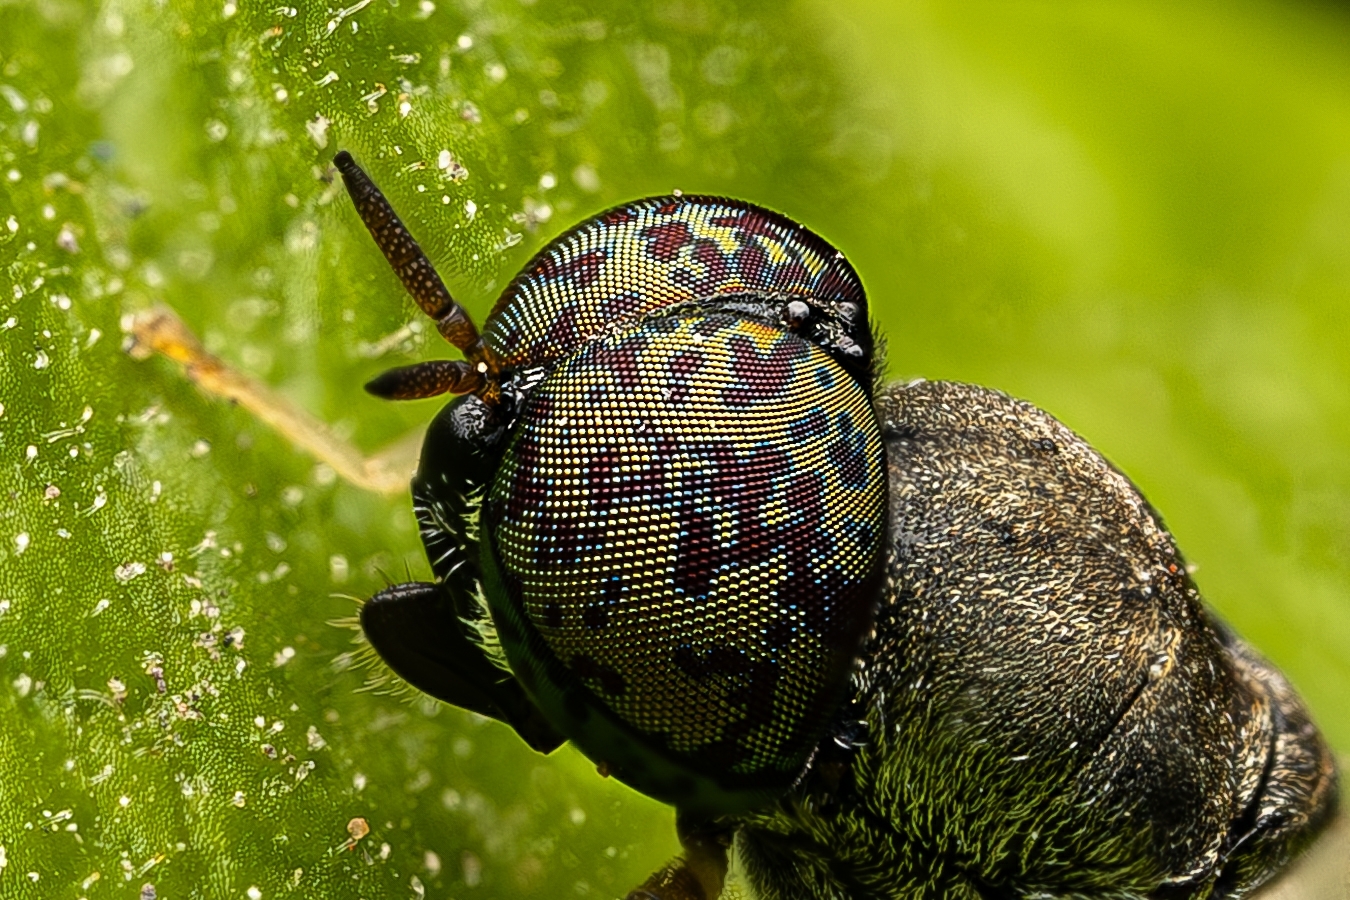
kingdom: Animalia
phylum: Arthropoda
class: Insecta
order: Diptera
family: Stratiomyidae
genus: Oplodontha
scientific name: Oplodontha rubrithorax
